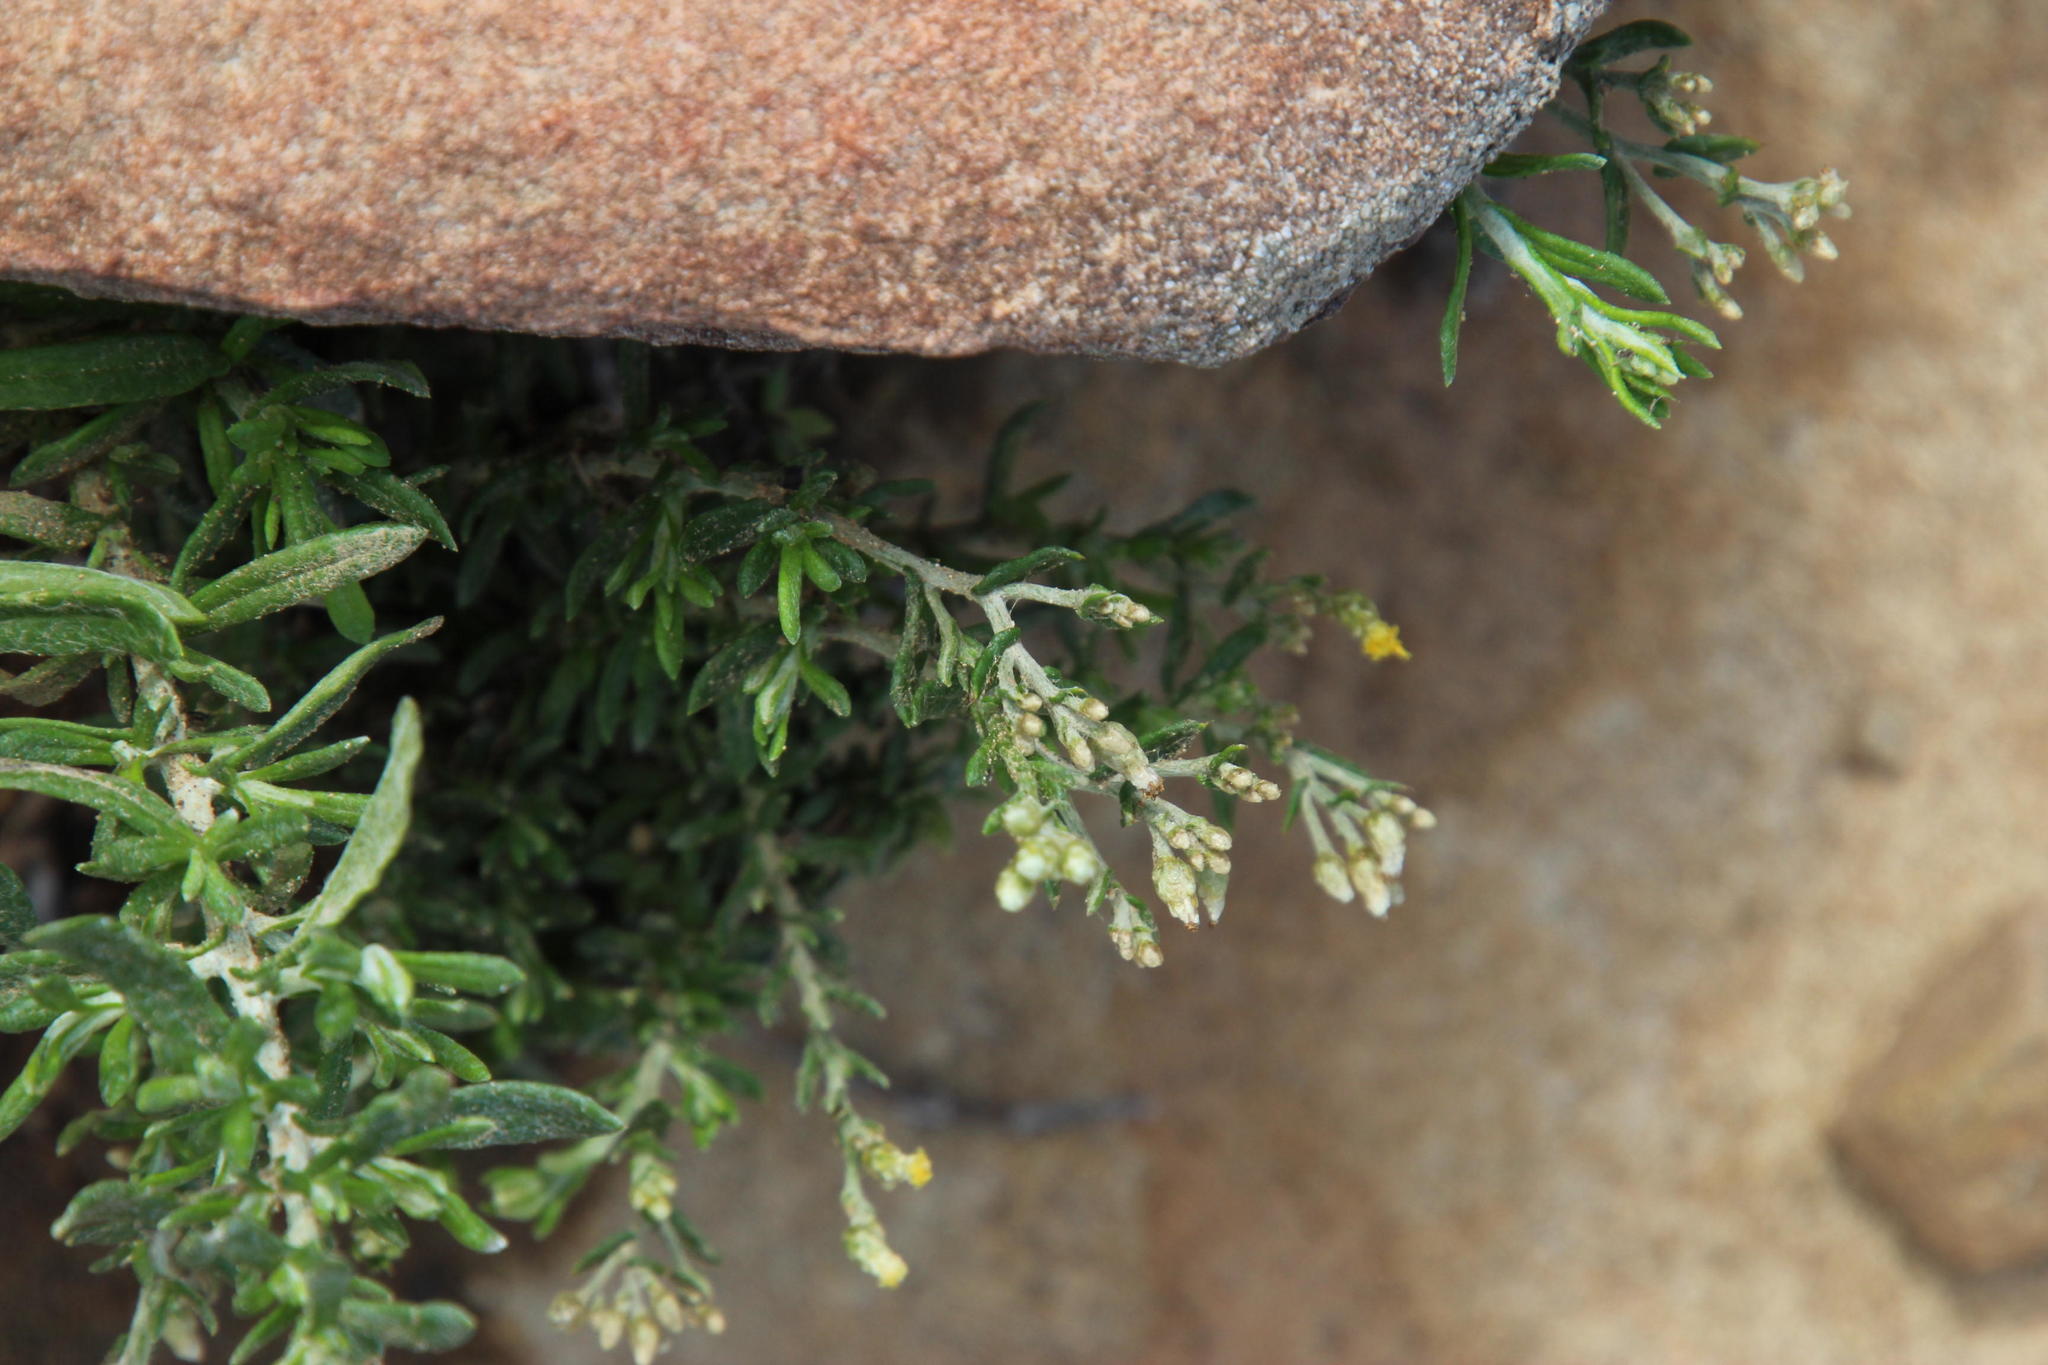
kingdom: Plantae
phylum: Tracheophyta
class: Magnoliopsida
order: Asterales
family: Asteraceae
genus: Helichrysum
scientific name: Helichrysum rosum
